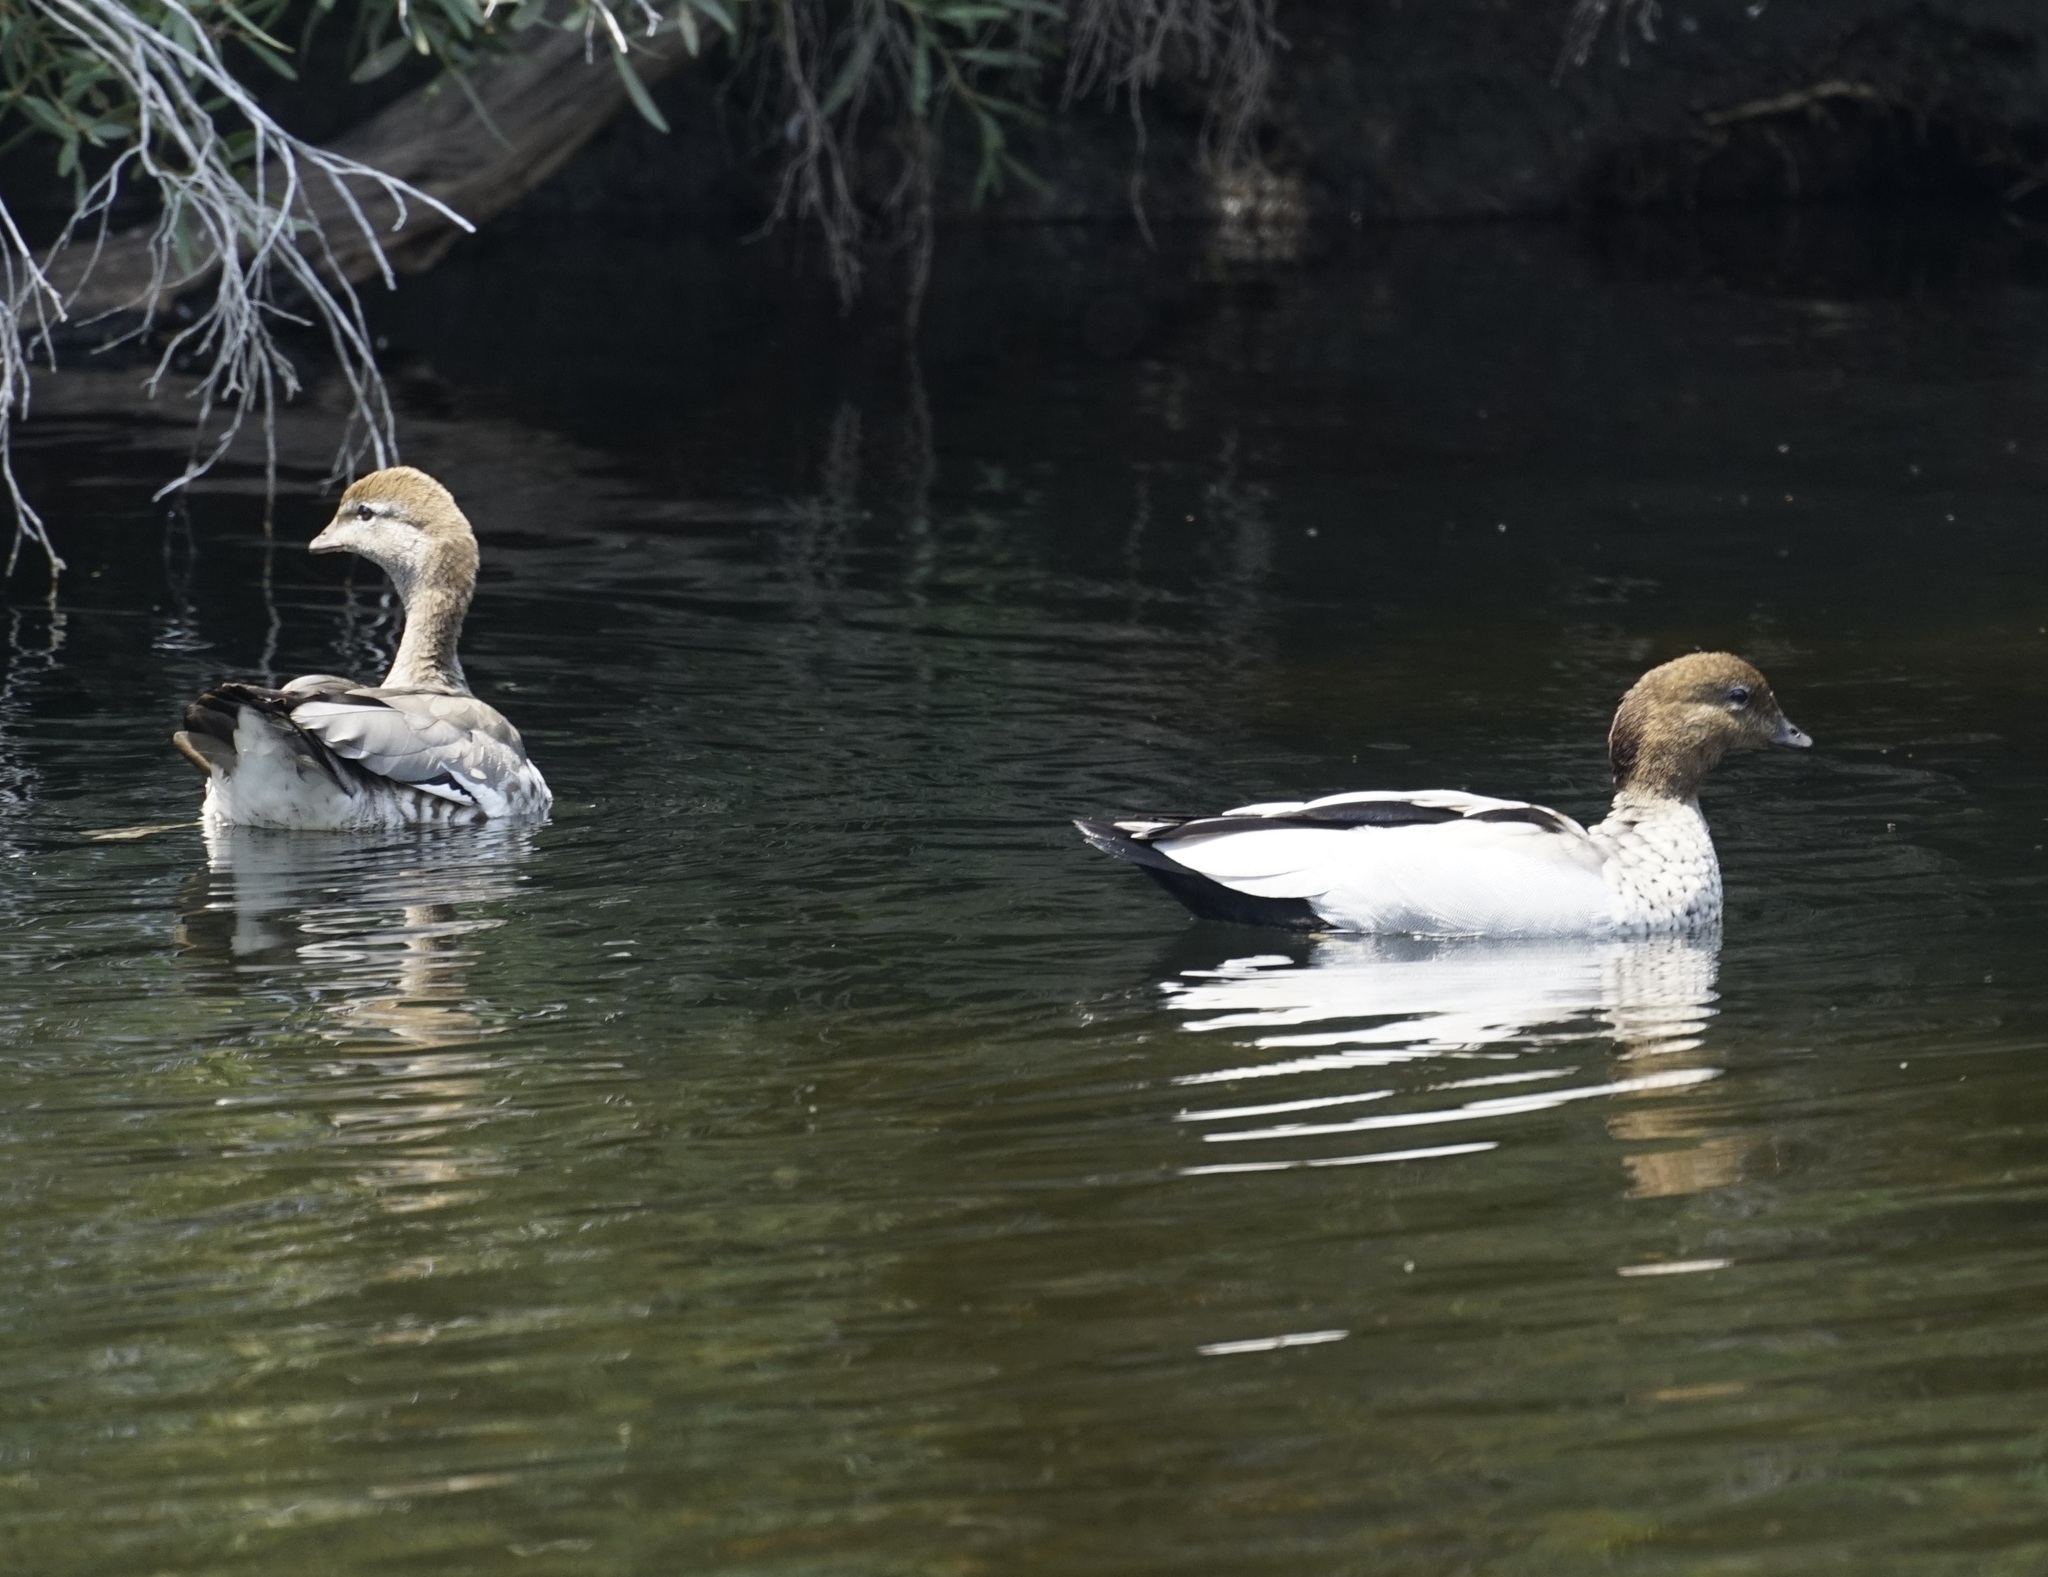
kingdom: Animalia
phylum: Chordata
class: Aves
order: Anseriformes
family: Anatidae
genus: Chenonetta
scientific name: Chenonetta jubata
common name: Maned duck
